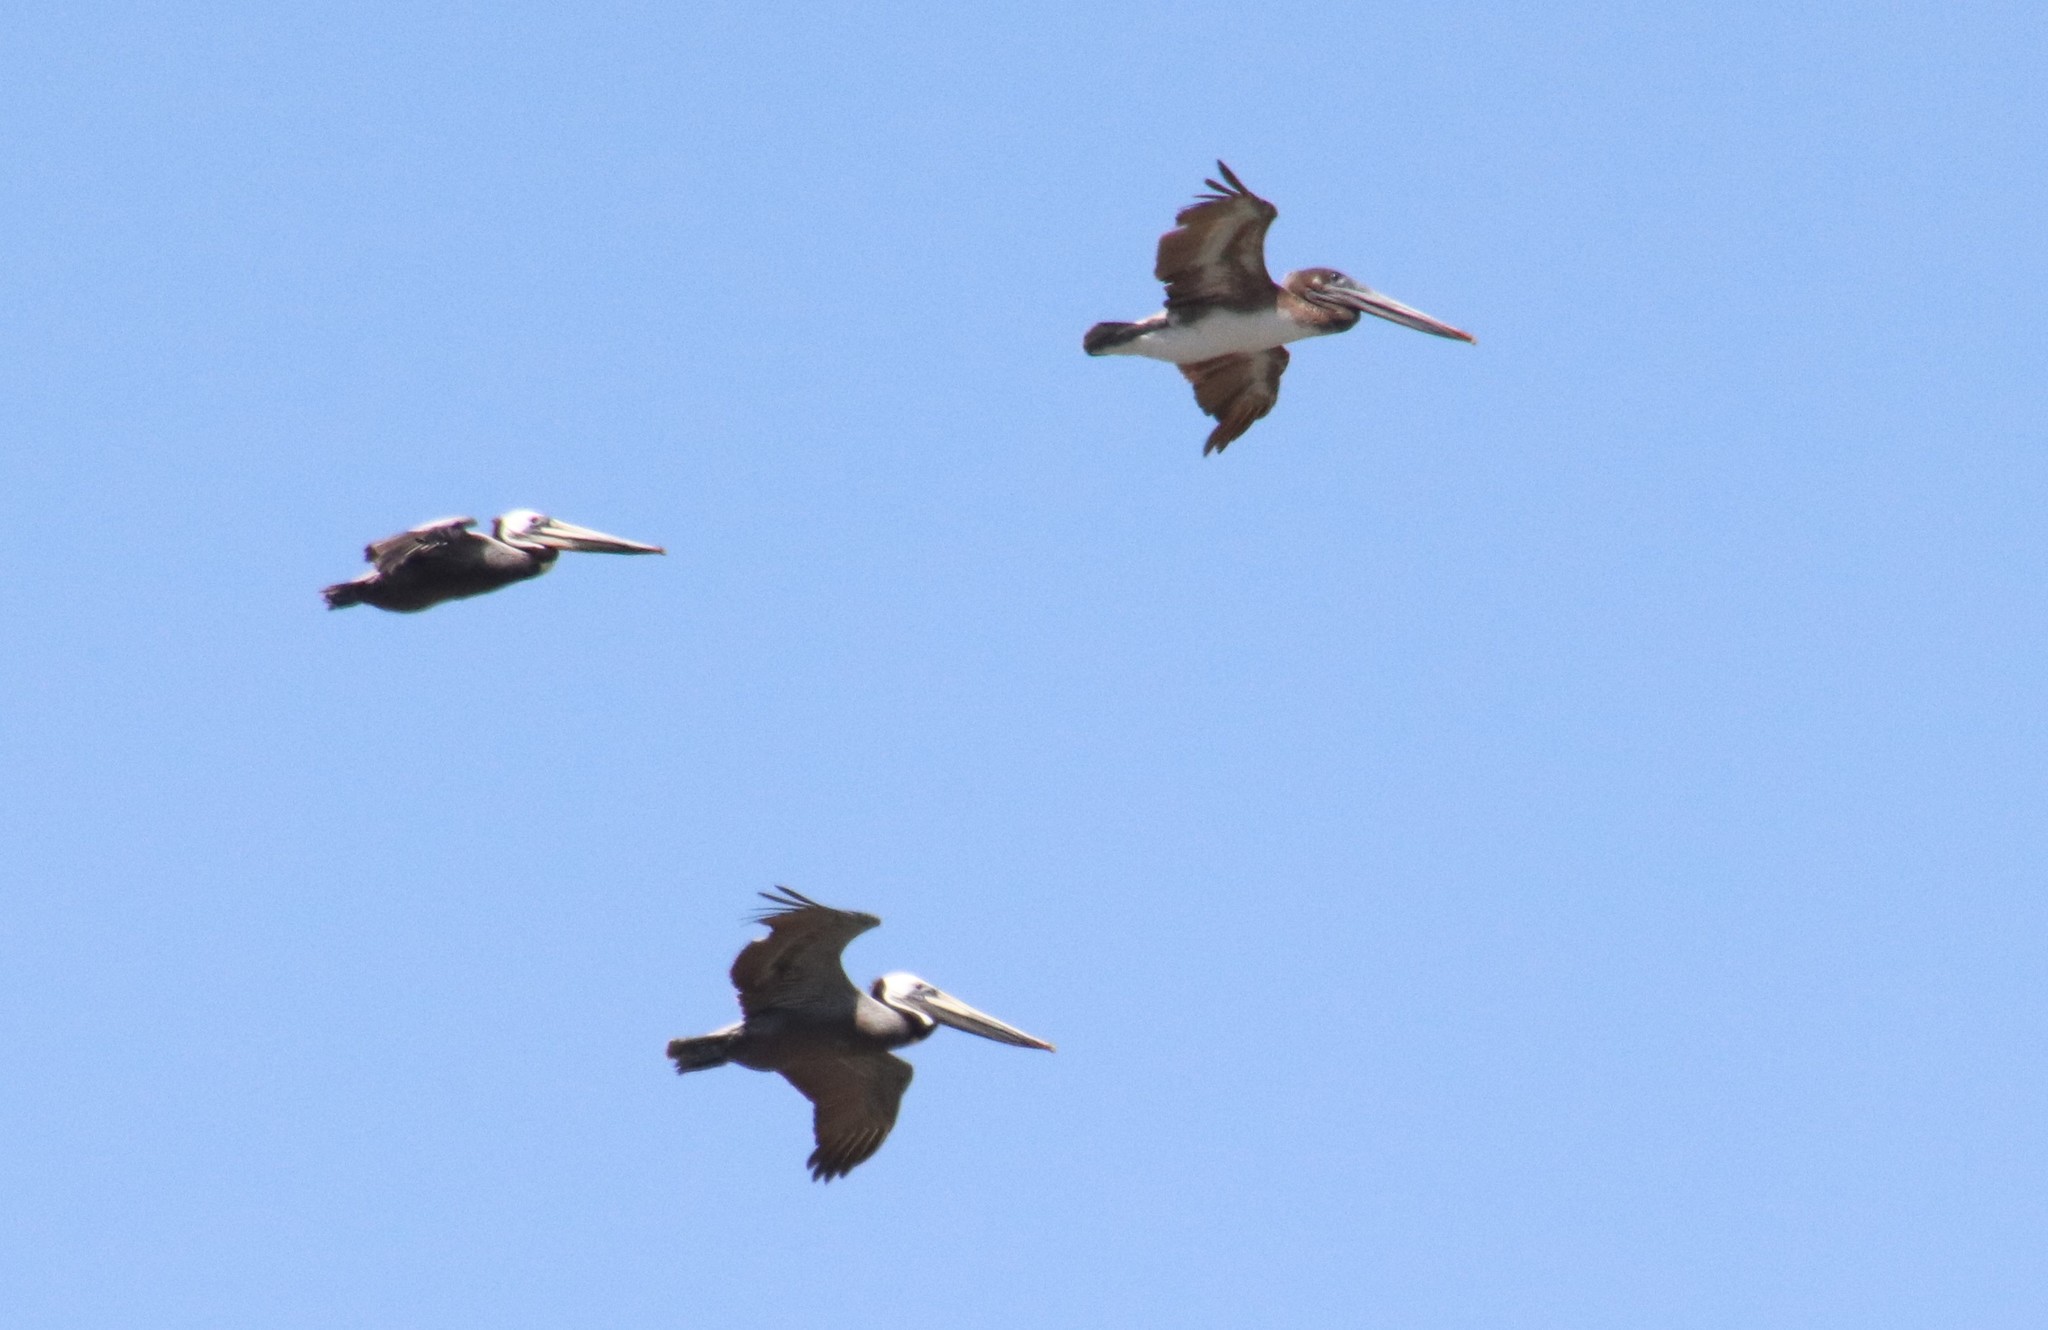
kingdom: Animalia
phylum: Chordata
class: Aves
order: Pelecaniformes
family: Pelecanidae
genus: Pelecanus
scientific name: Pelecanus occidentalis
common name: Brown pelican
